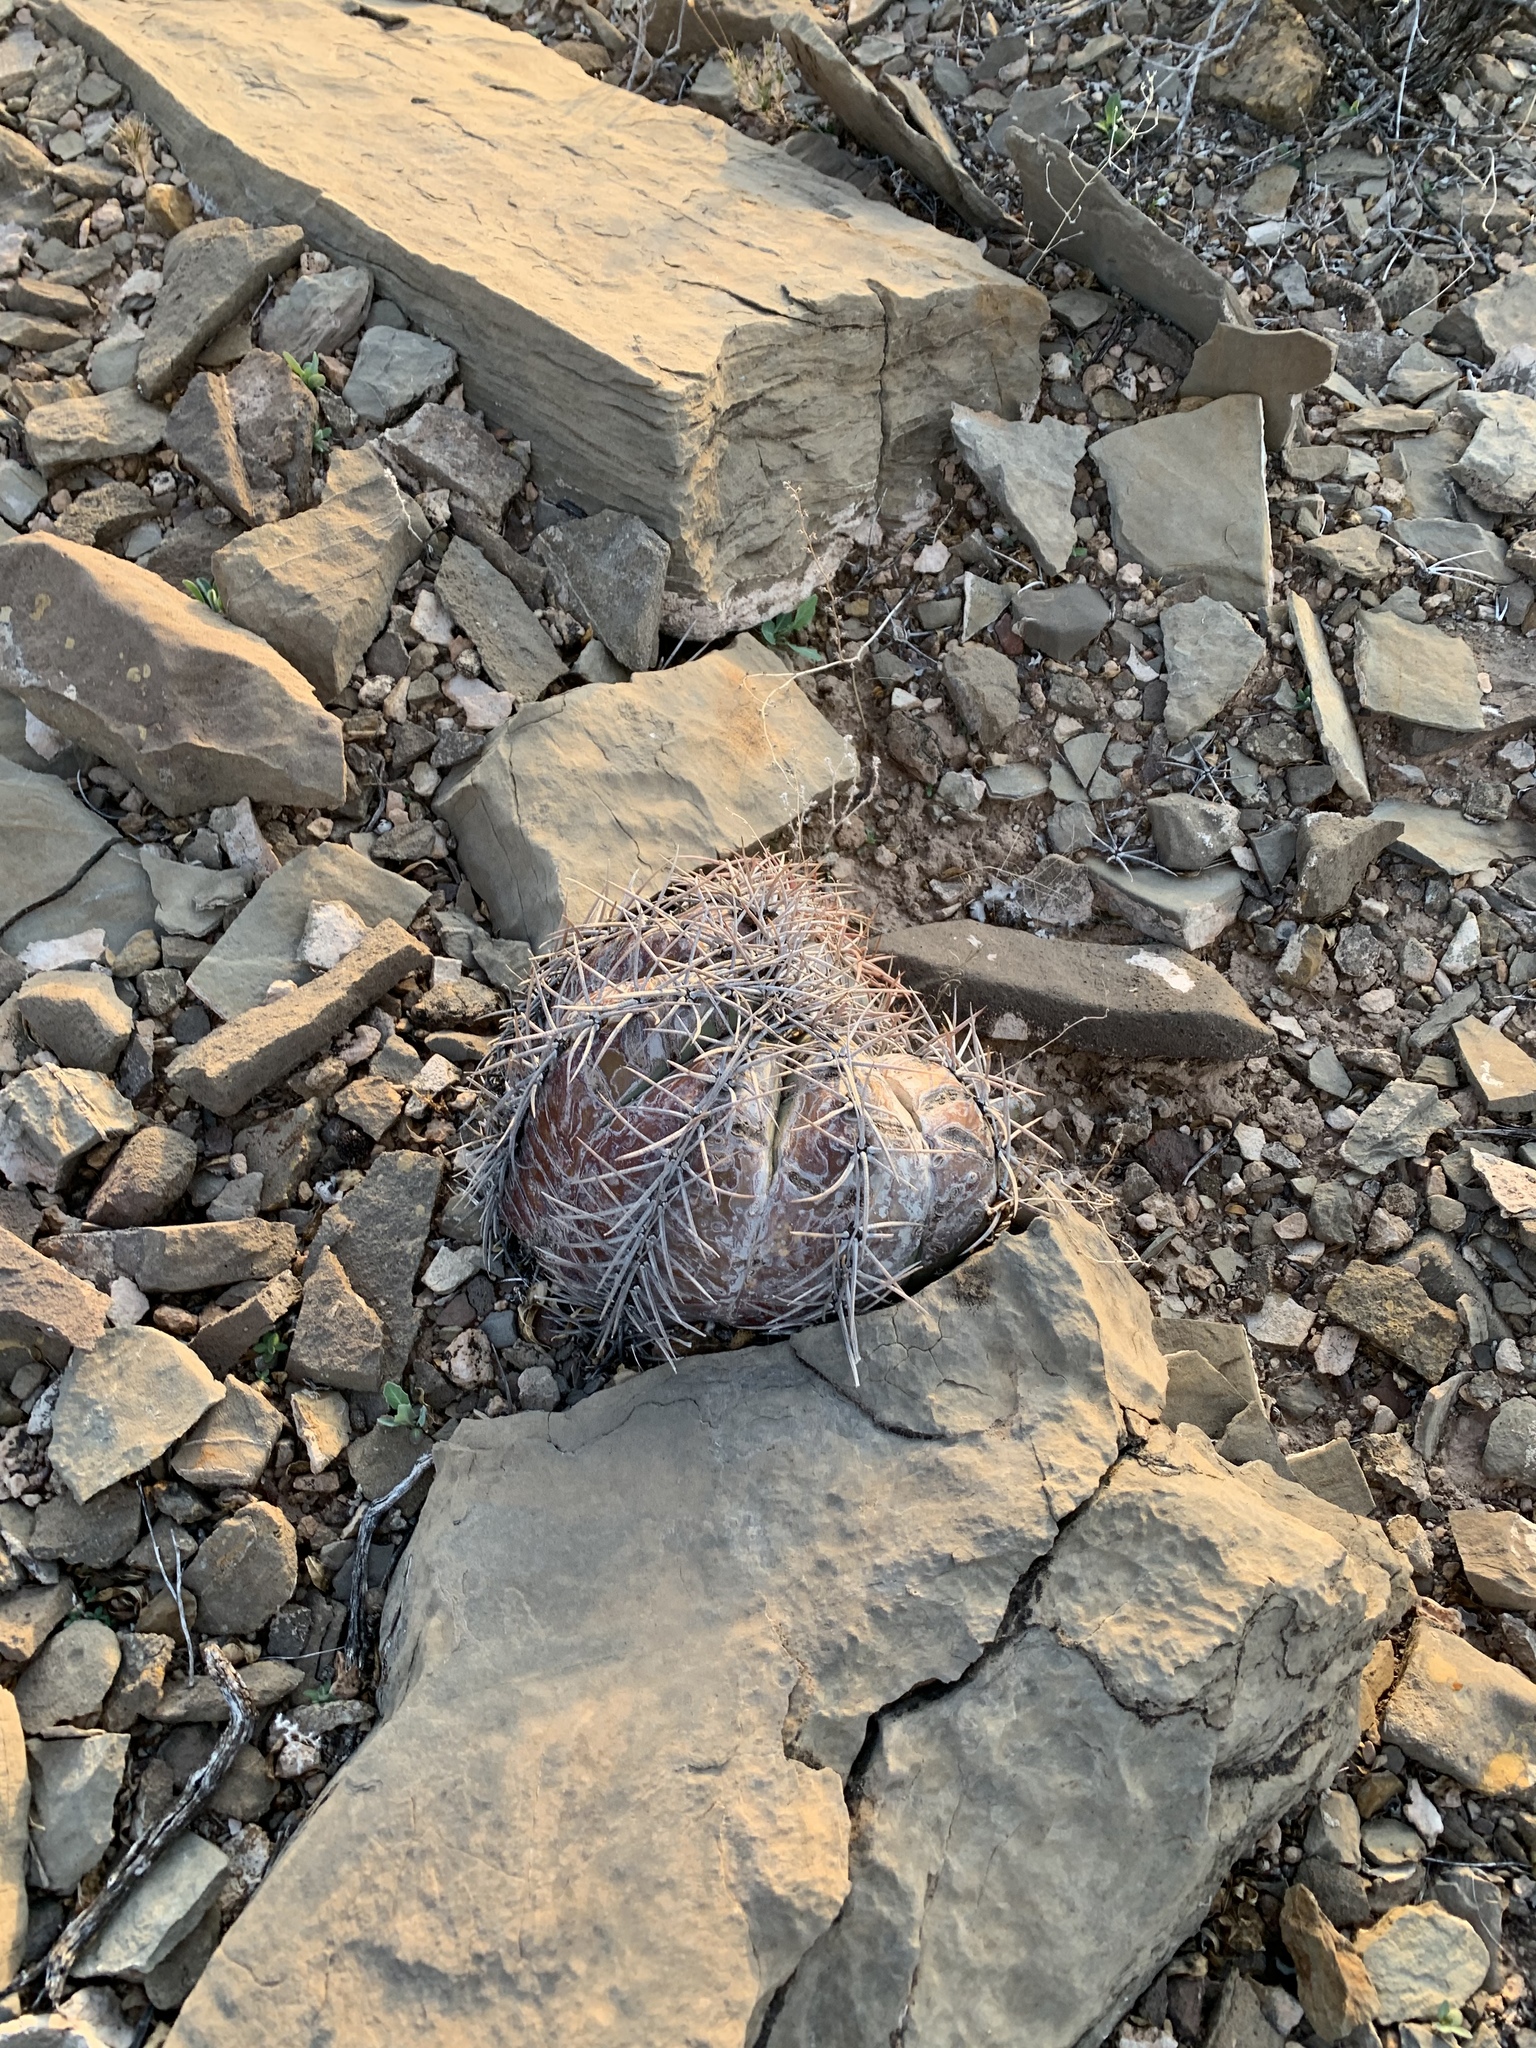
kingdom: Plantae
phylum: Tracheophyta
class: Magnoliopsida
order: Caryophyllales
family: Cactaceae
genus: Echinocactus
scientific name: Echinocactus horizonthalonius
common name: Devilshead
